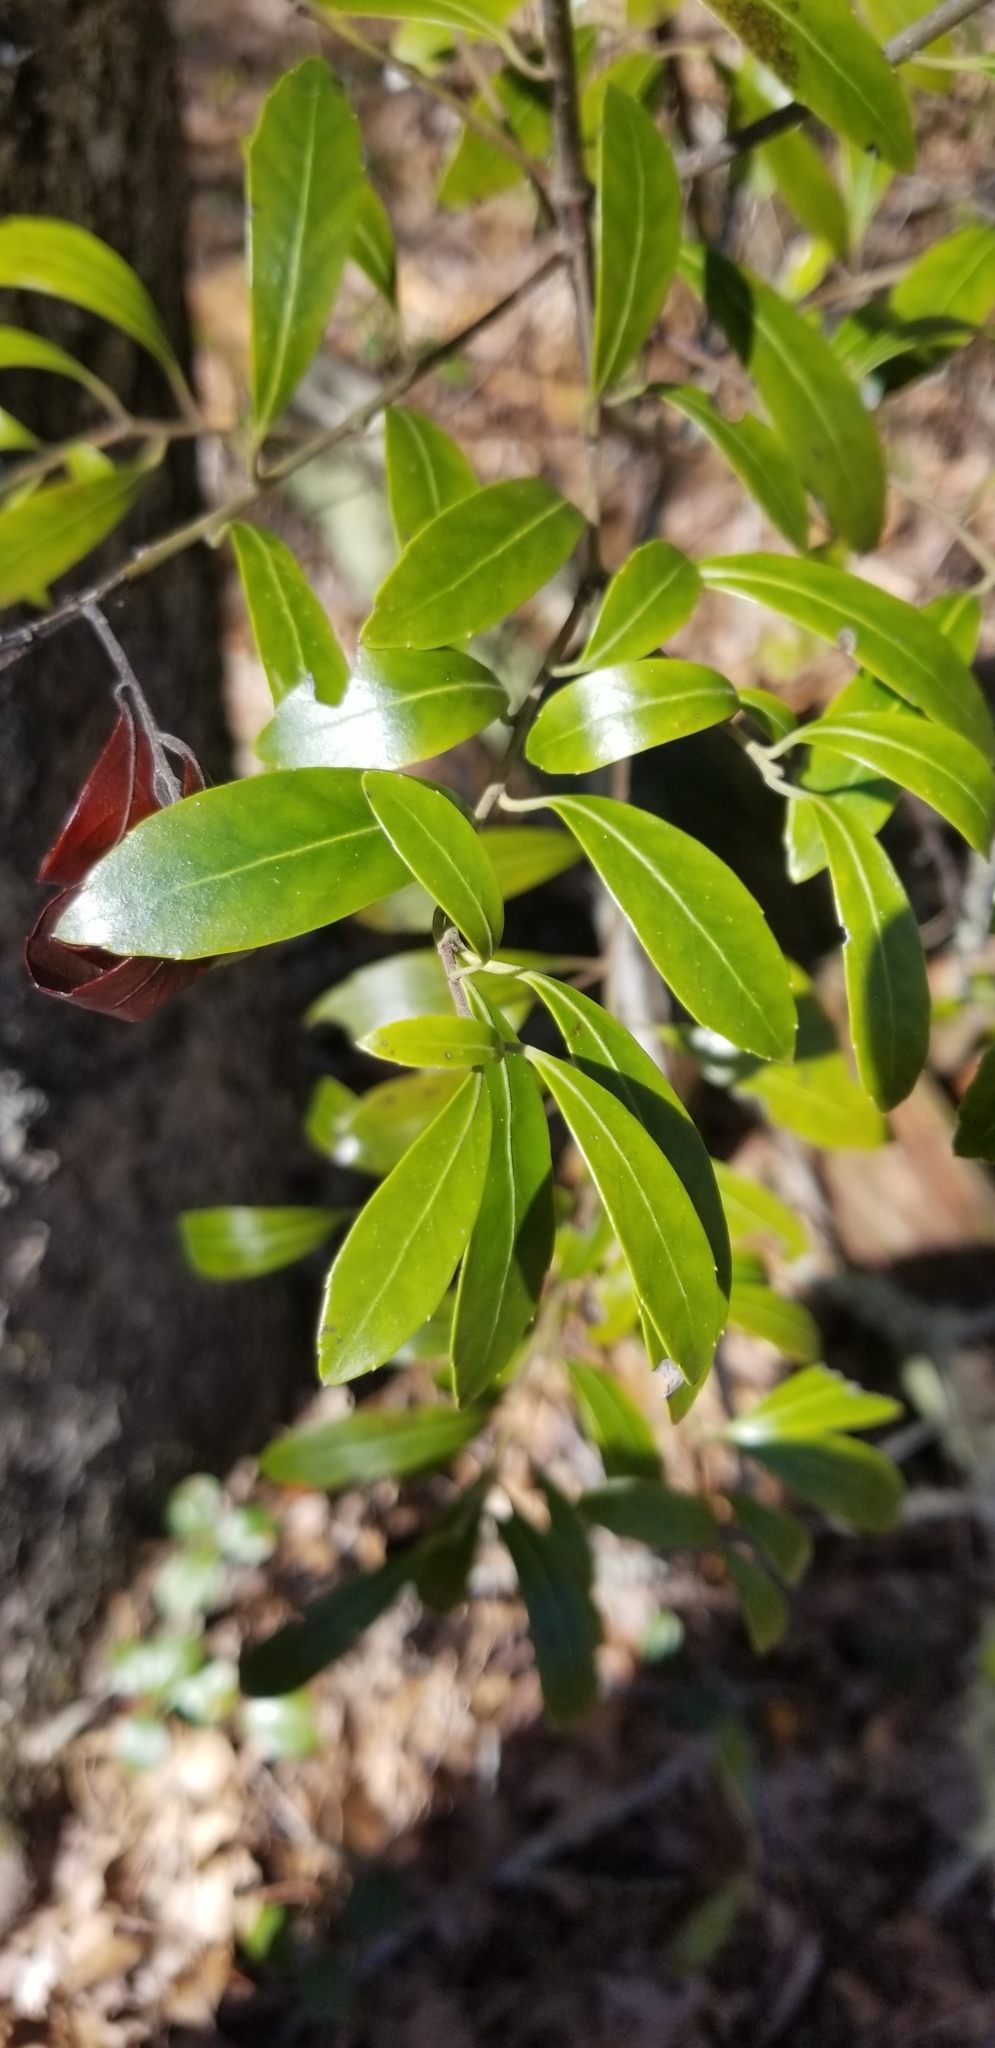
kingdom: Plantae
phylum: Tracheophyta
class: Magnoliopsida
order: Aquifoliales
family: Aquifoliaceae
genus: Ilex
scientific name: Ilex glabra
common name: Bitter gallberry
